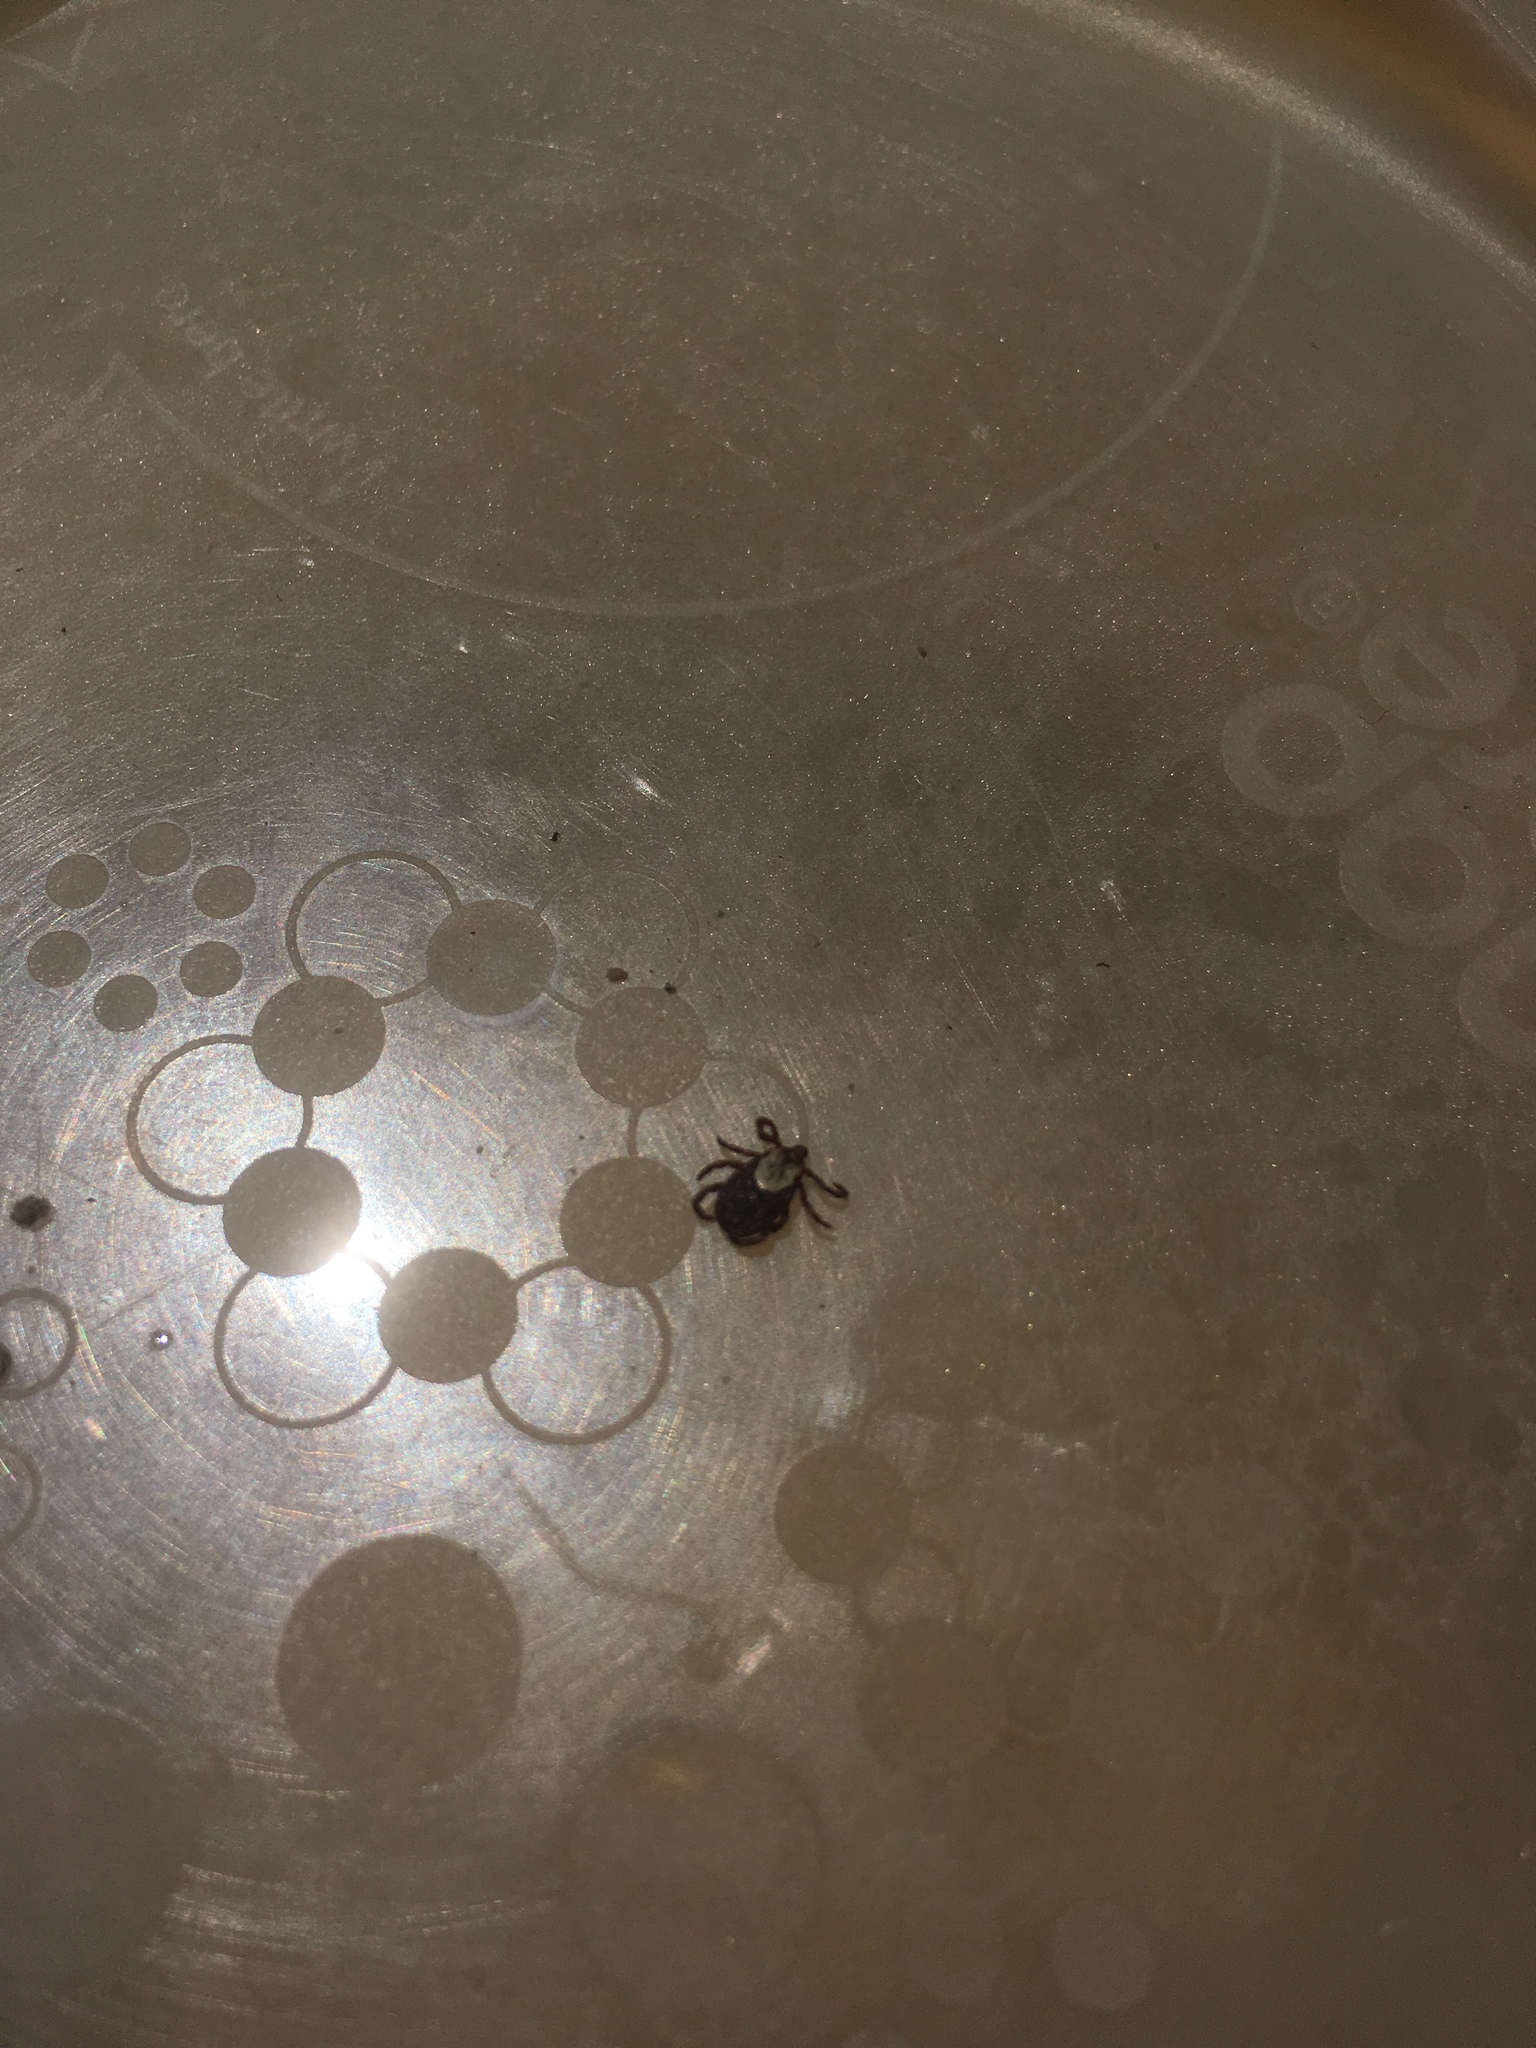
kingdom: Animalia
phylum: Arthropoda
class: Arachnida
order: Ixodida
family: Ixodidae
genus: Dermacentor
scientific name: Dermacentor variabilis
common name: American dog tick
